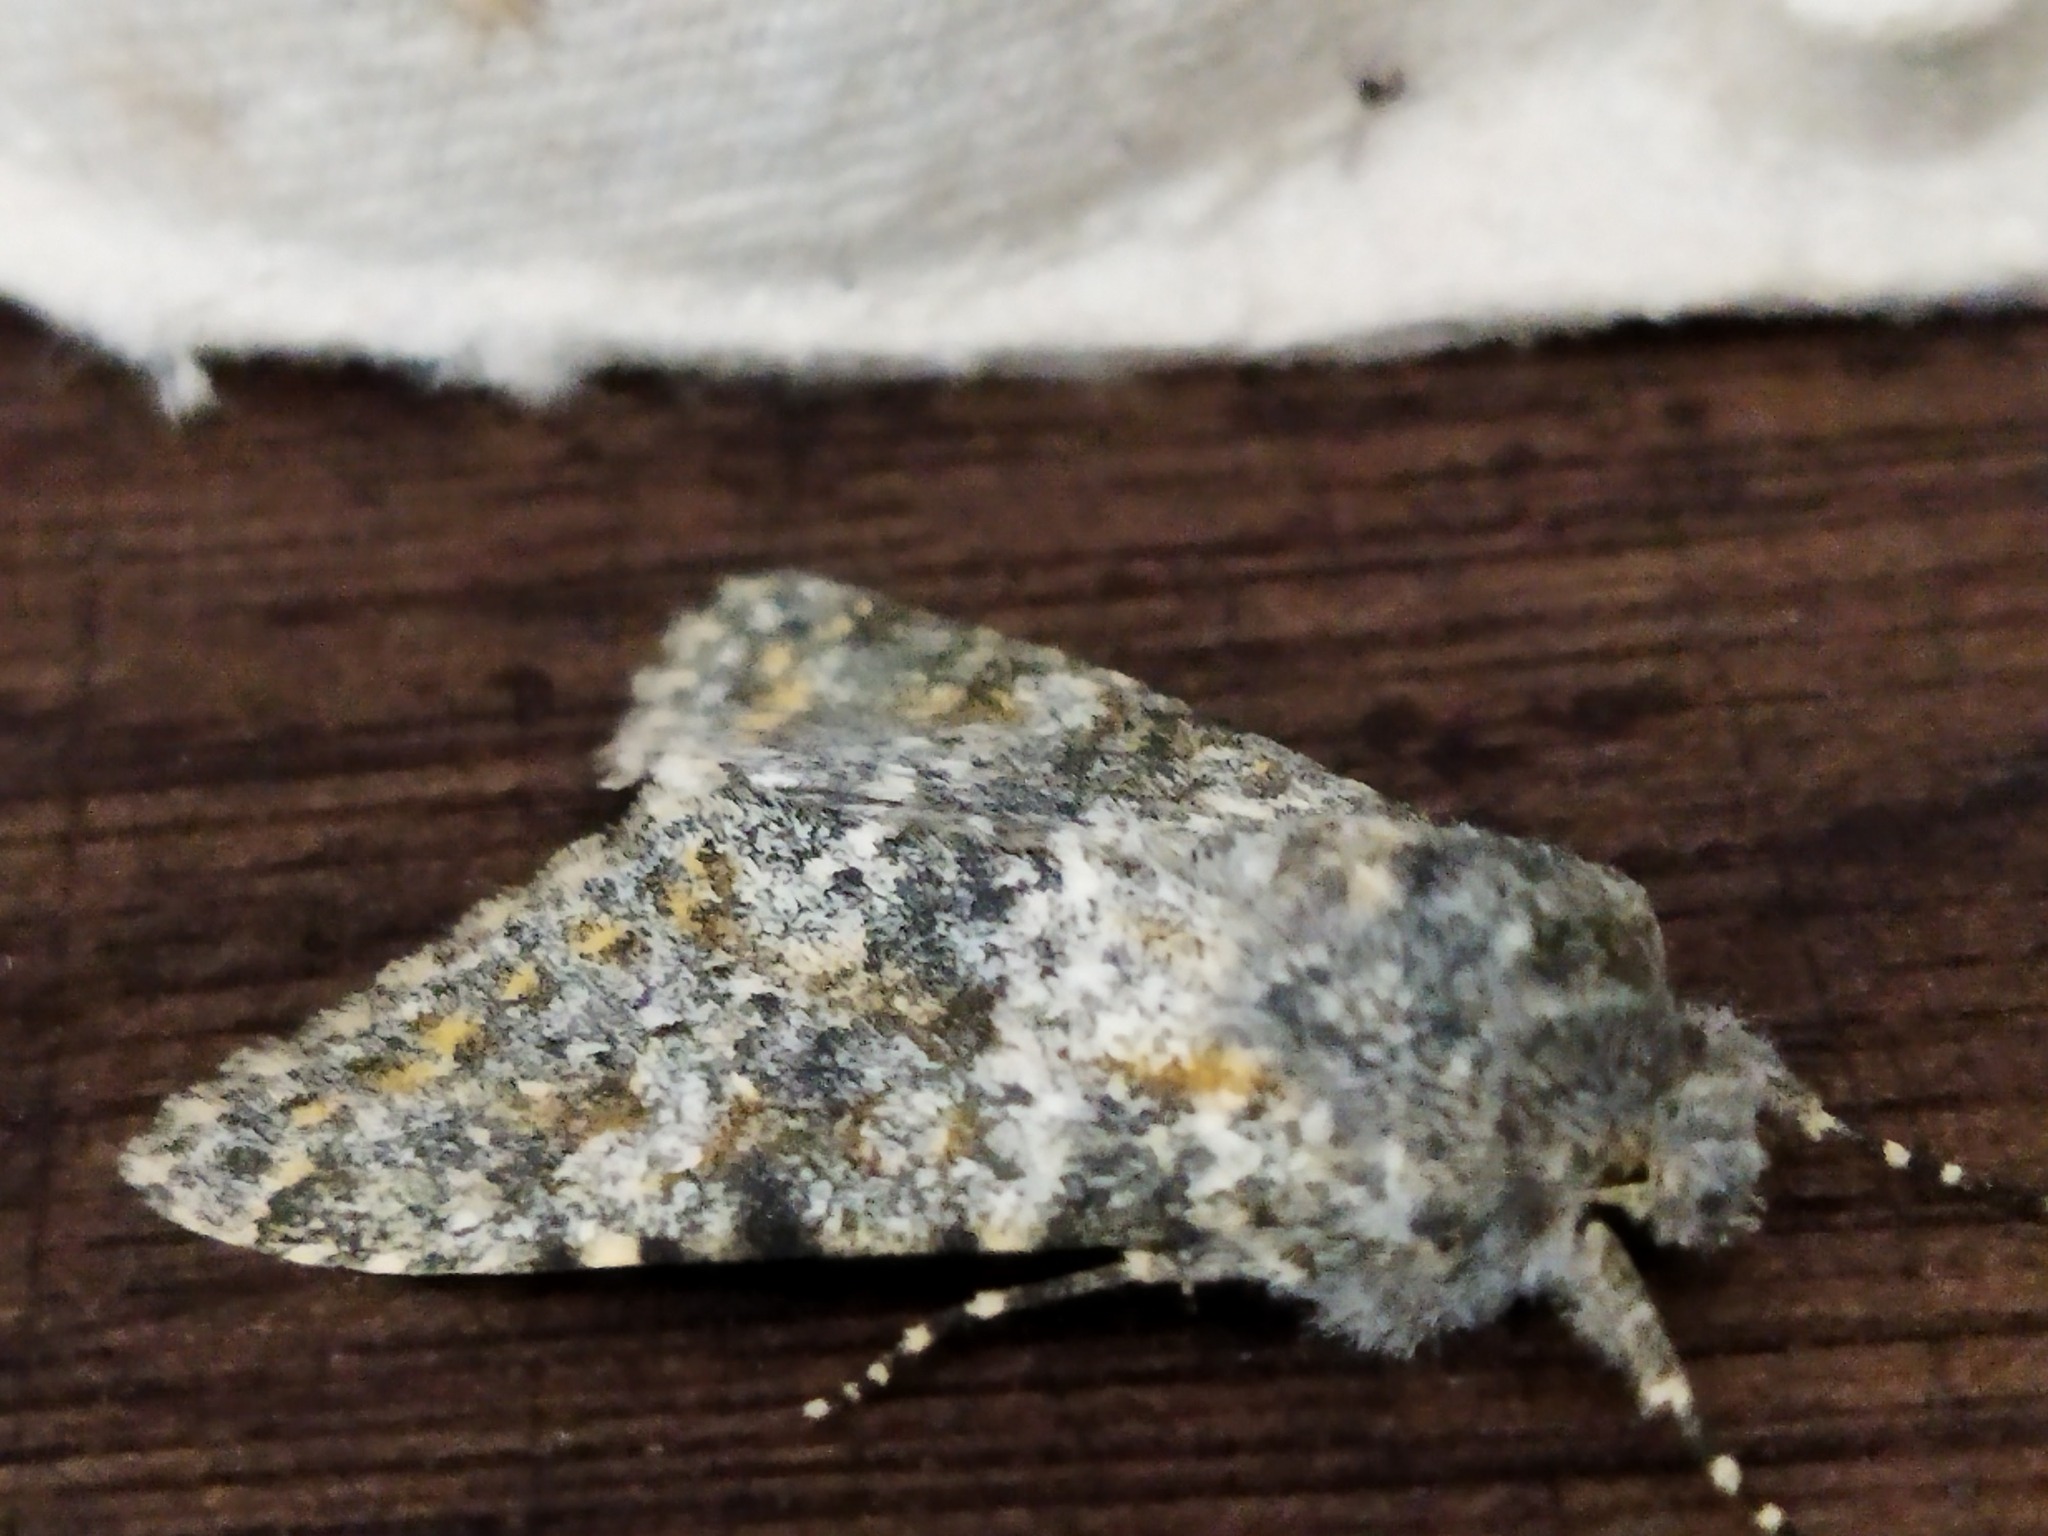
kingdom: Animalia
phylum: Arthropoda
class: Insecta
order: Lepidoptera
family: Noctuidae
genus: Polymixis
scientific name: Polymixis rufocincta
